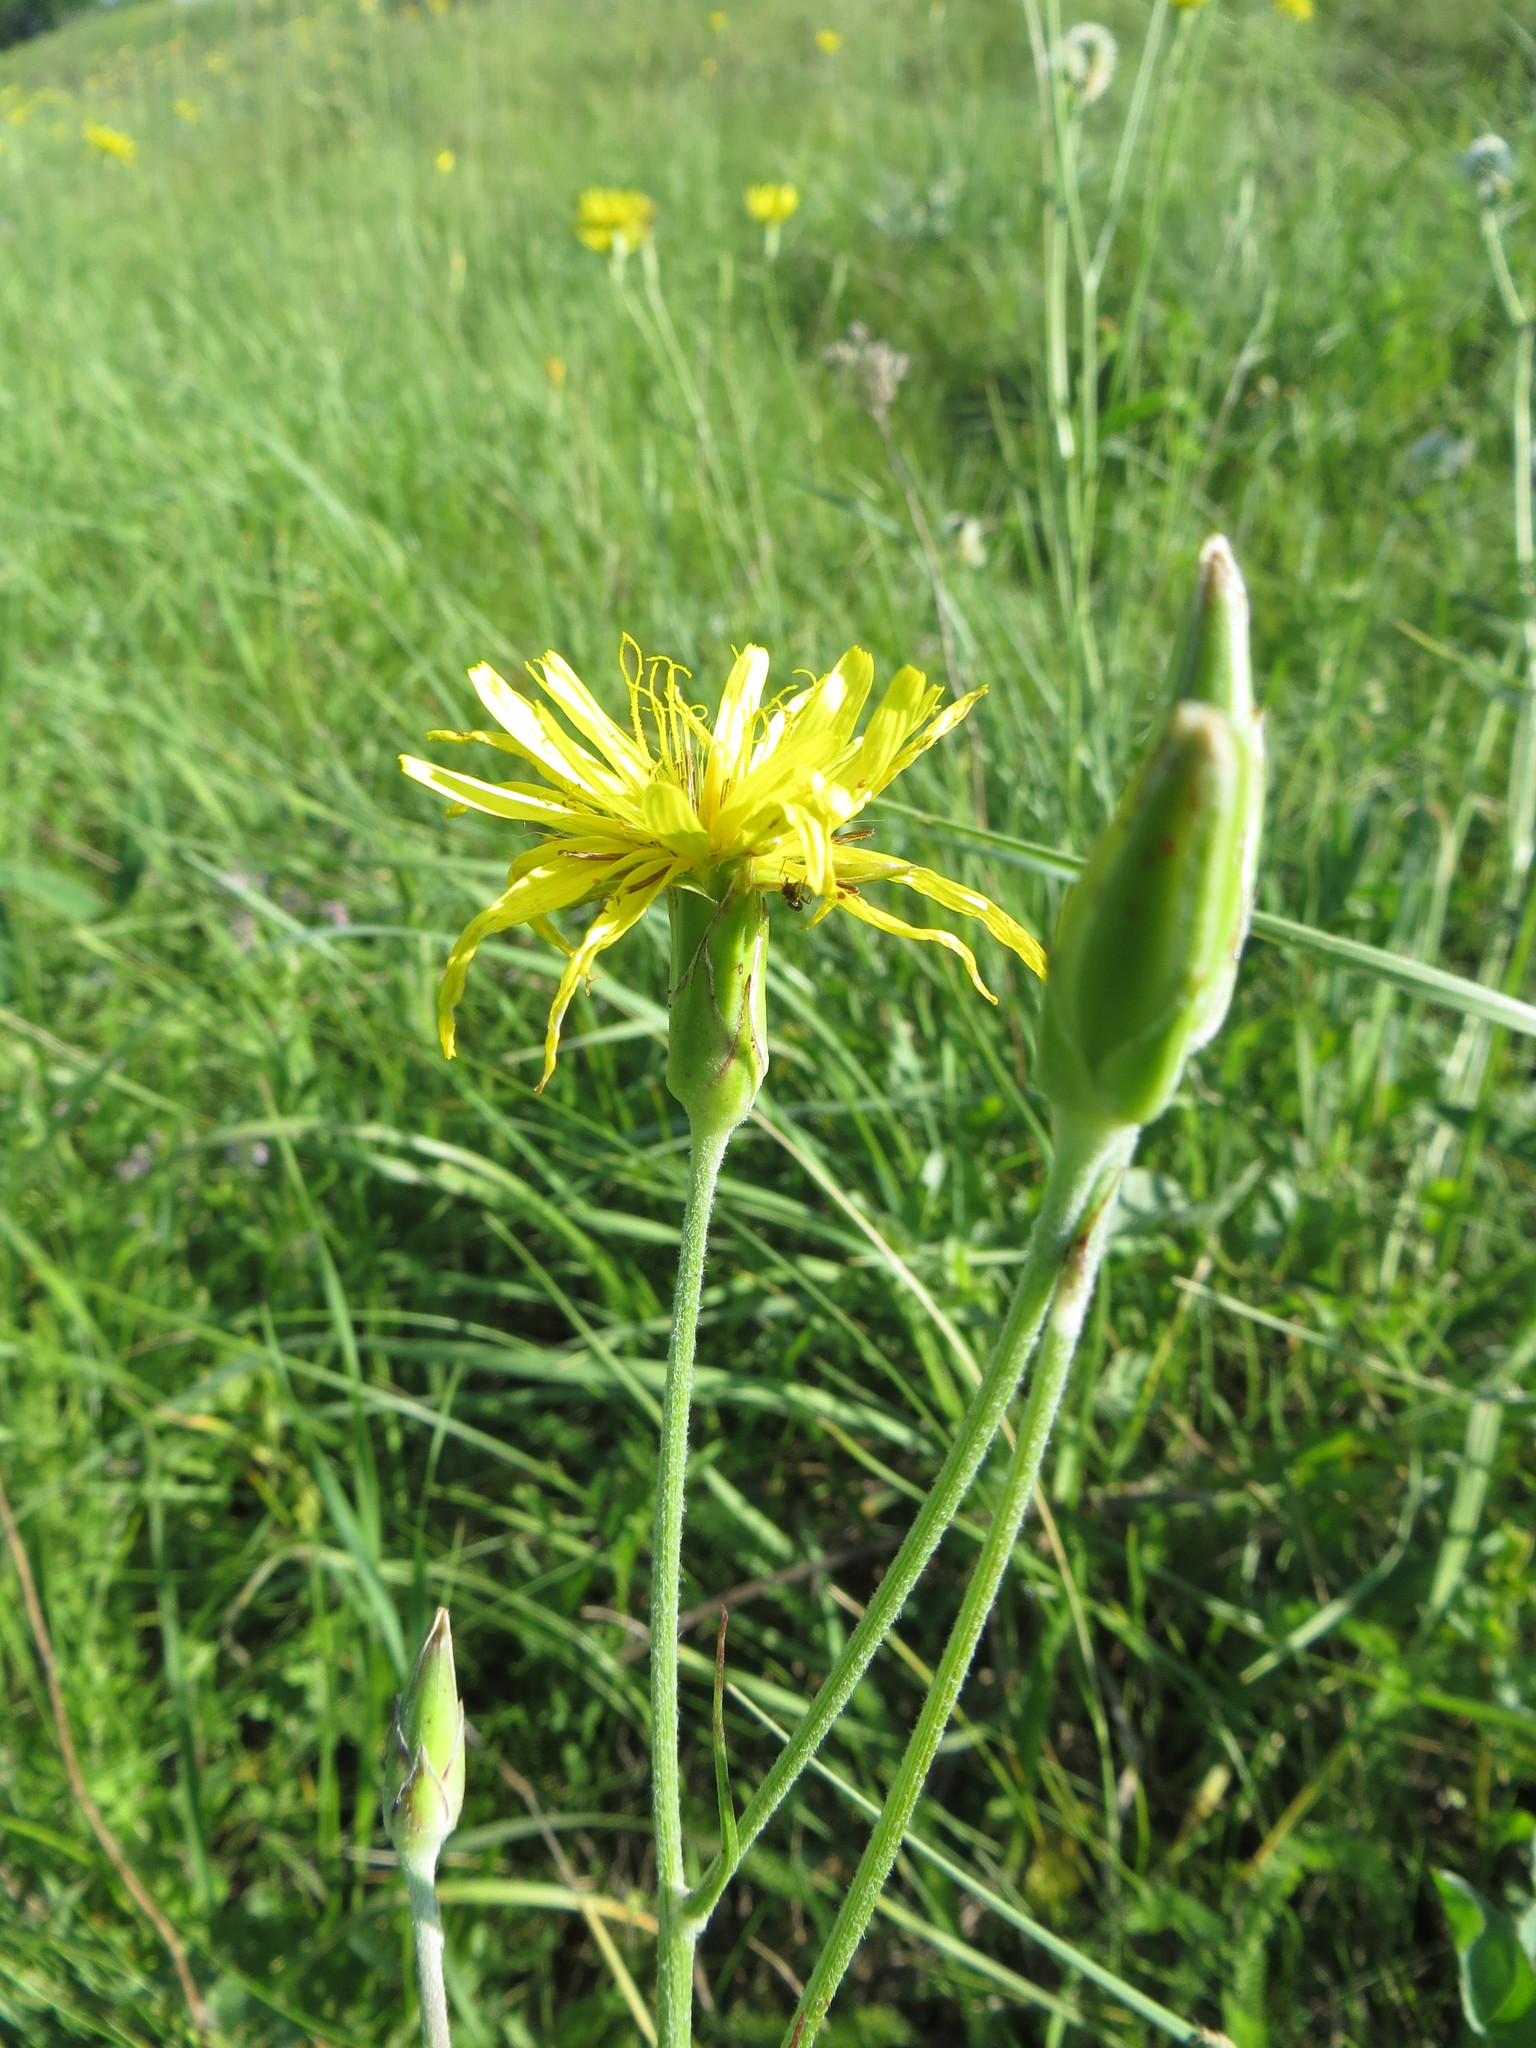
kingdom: Plantae
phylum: Tracheophyta
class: Magnoliopsida
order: Asterales
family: Asteraceae
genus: Pseudopodospermum
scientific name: Pseudopodospermum strictum
